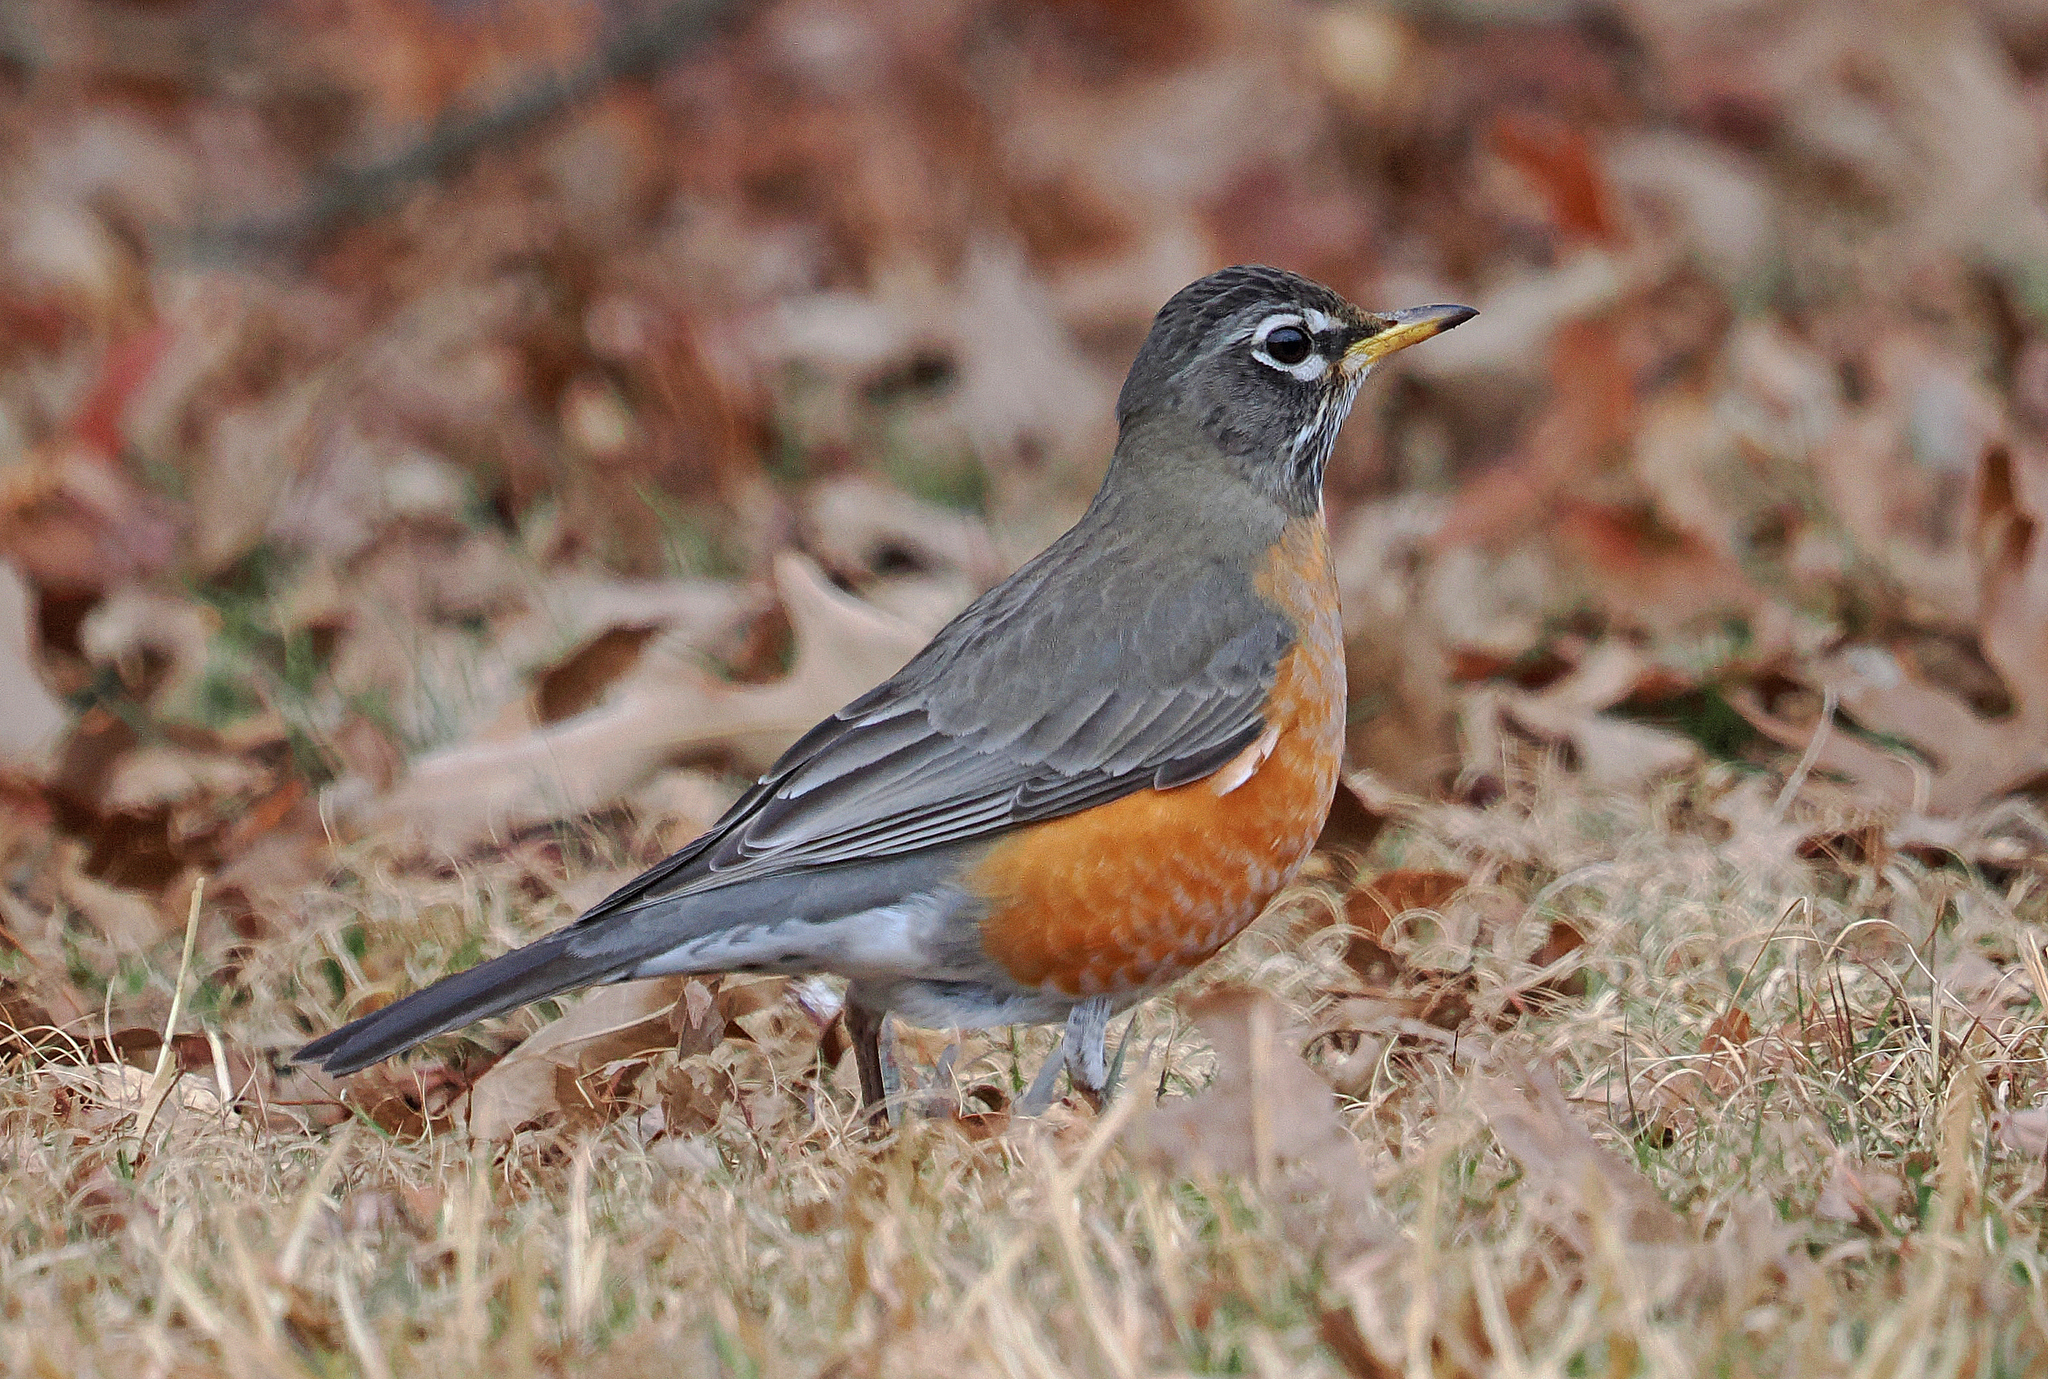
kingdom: Animalia
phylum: Chordata
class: Aves
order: Passeriformes
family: Turdidae
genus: Turdus
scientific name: Turdus migratorius
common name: American robin
